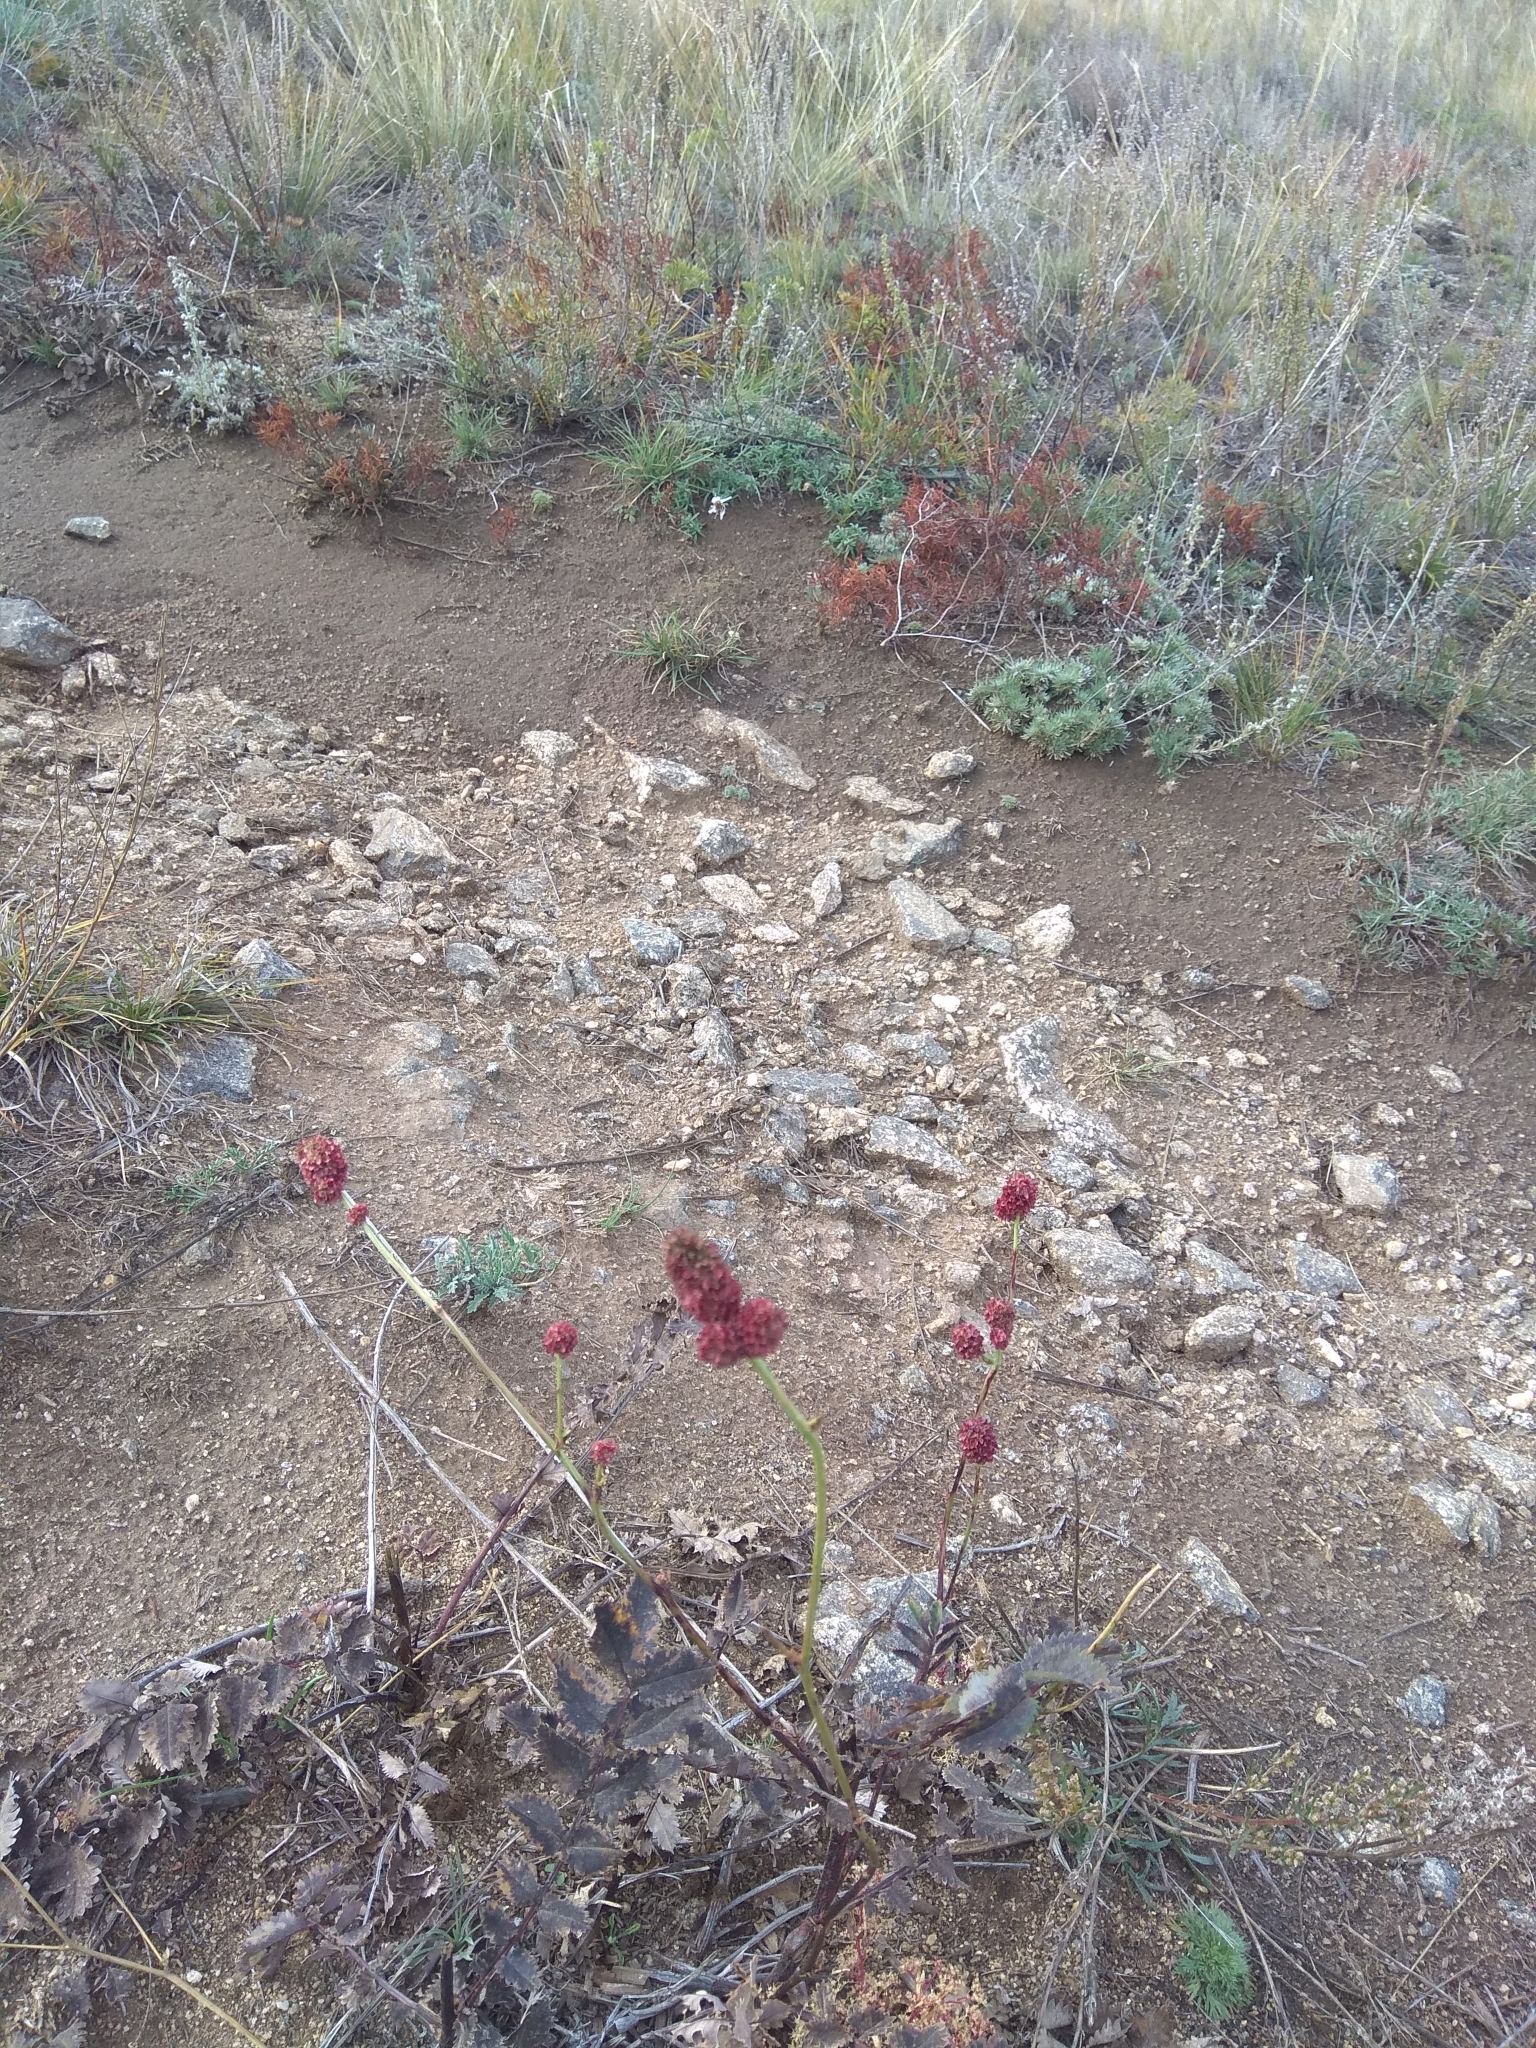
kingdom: Plantae
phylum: Tracheophyta
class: Magnoliopsida
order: Rosales
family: Rosaceae
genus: Sanguisorba
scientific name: Sanguisorba officinalis
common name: Great burnet
